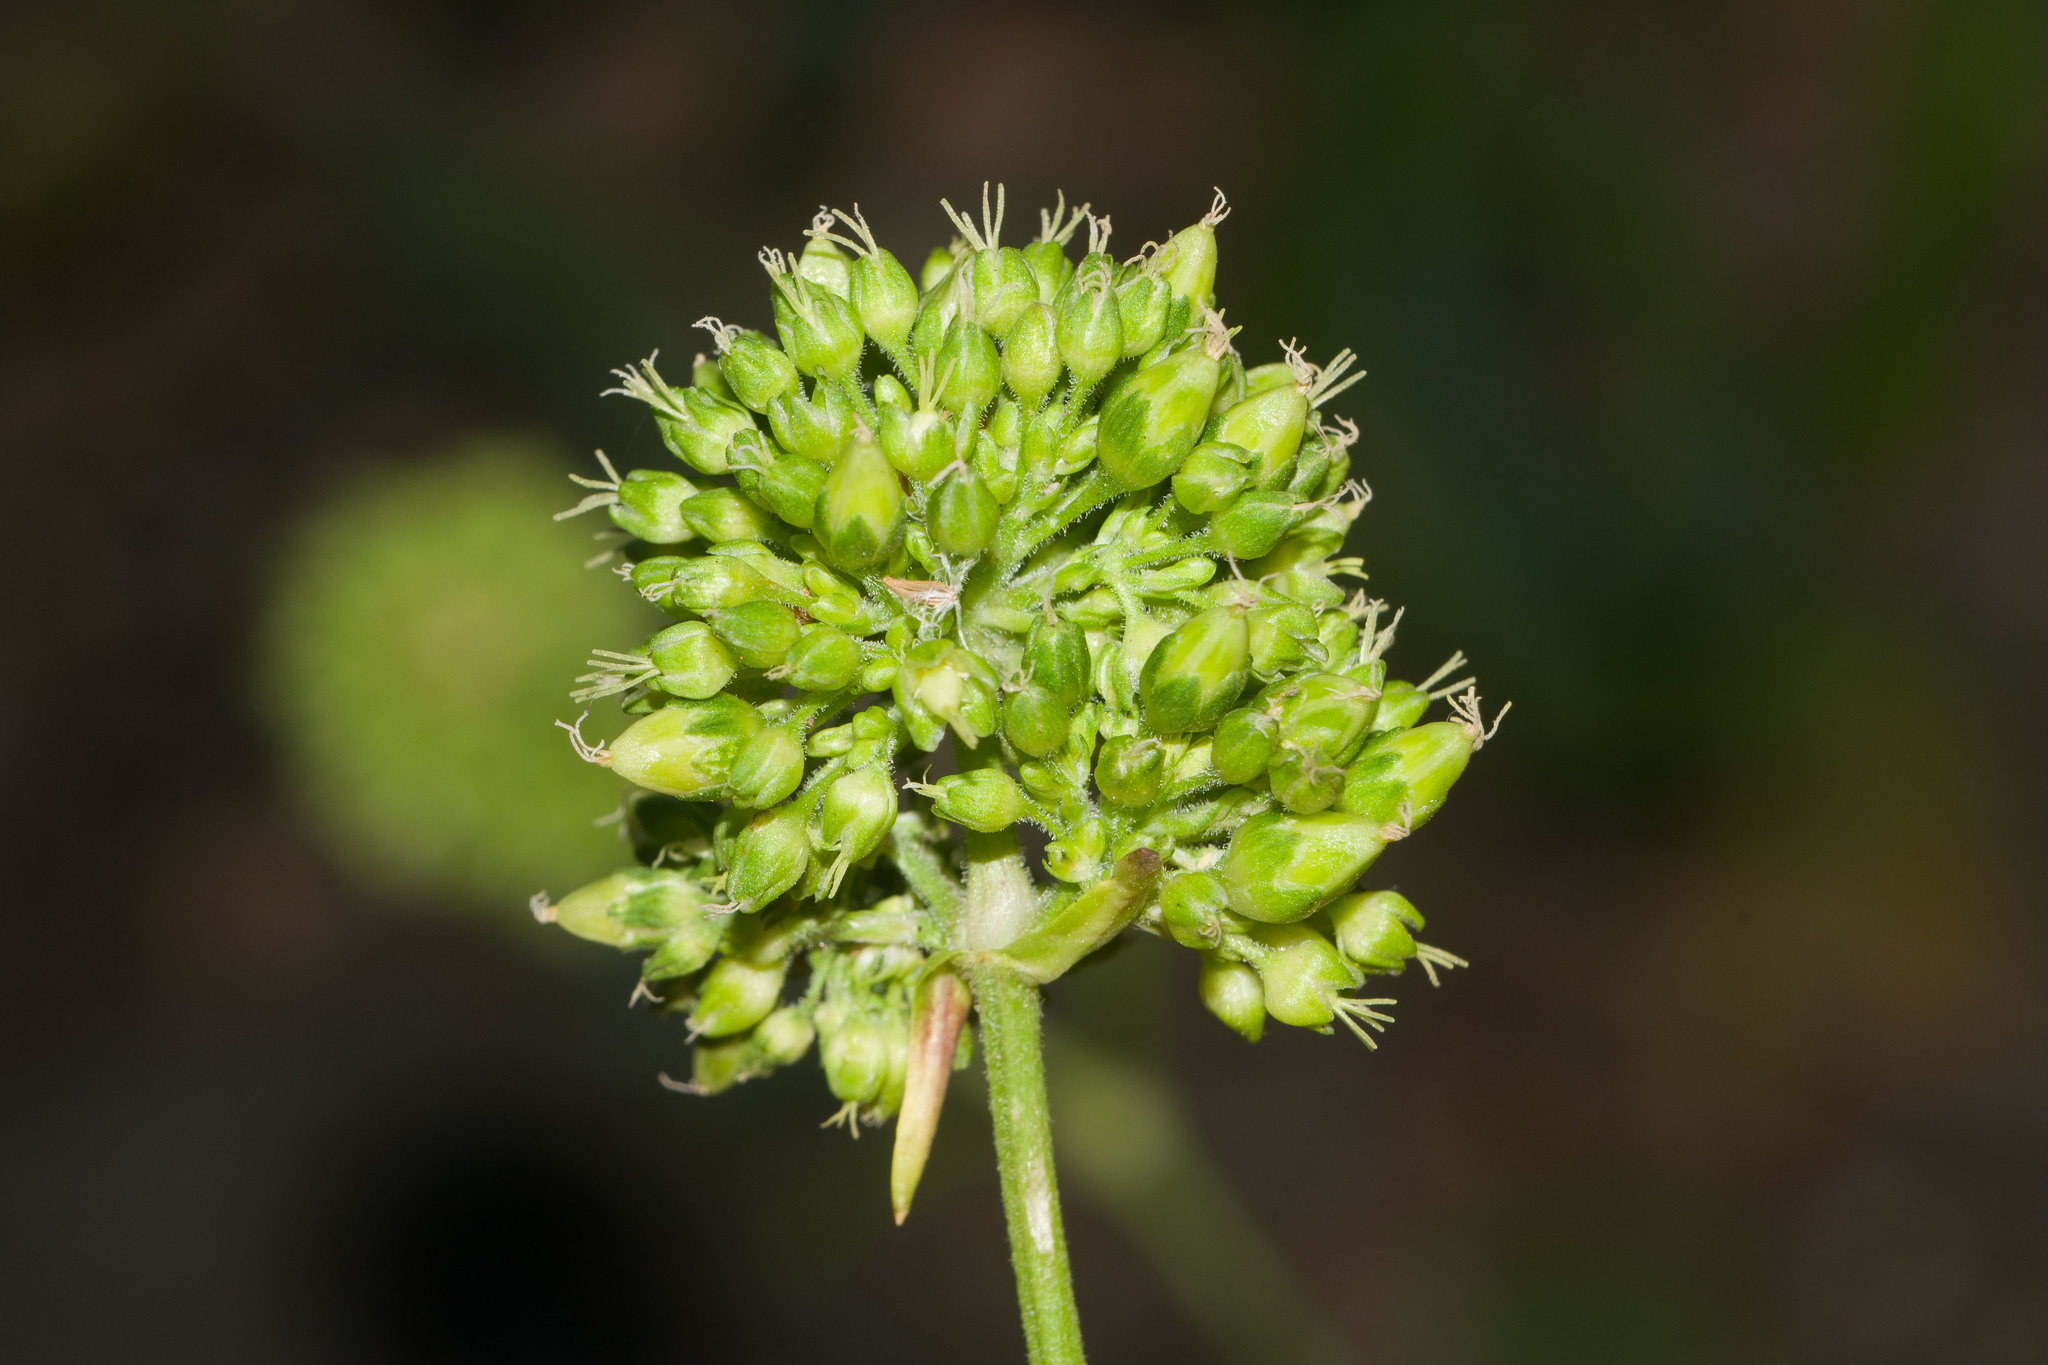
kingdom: Plantae
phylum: Tracheophyta
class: Magnoliopsida
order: Caryophyllales
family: Caryophyllaceae
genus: Schiedea
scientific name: Schiedea globosa
